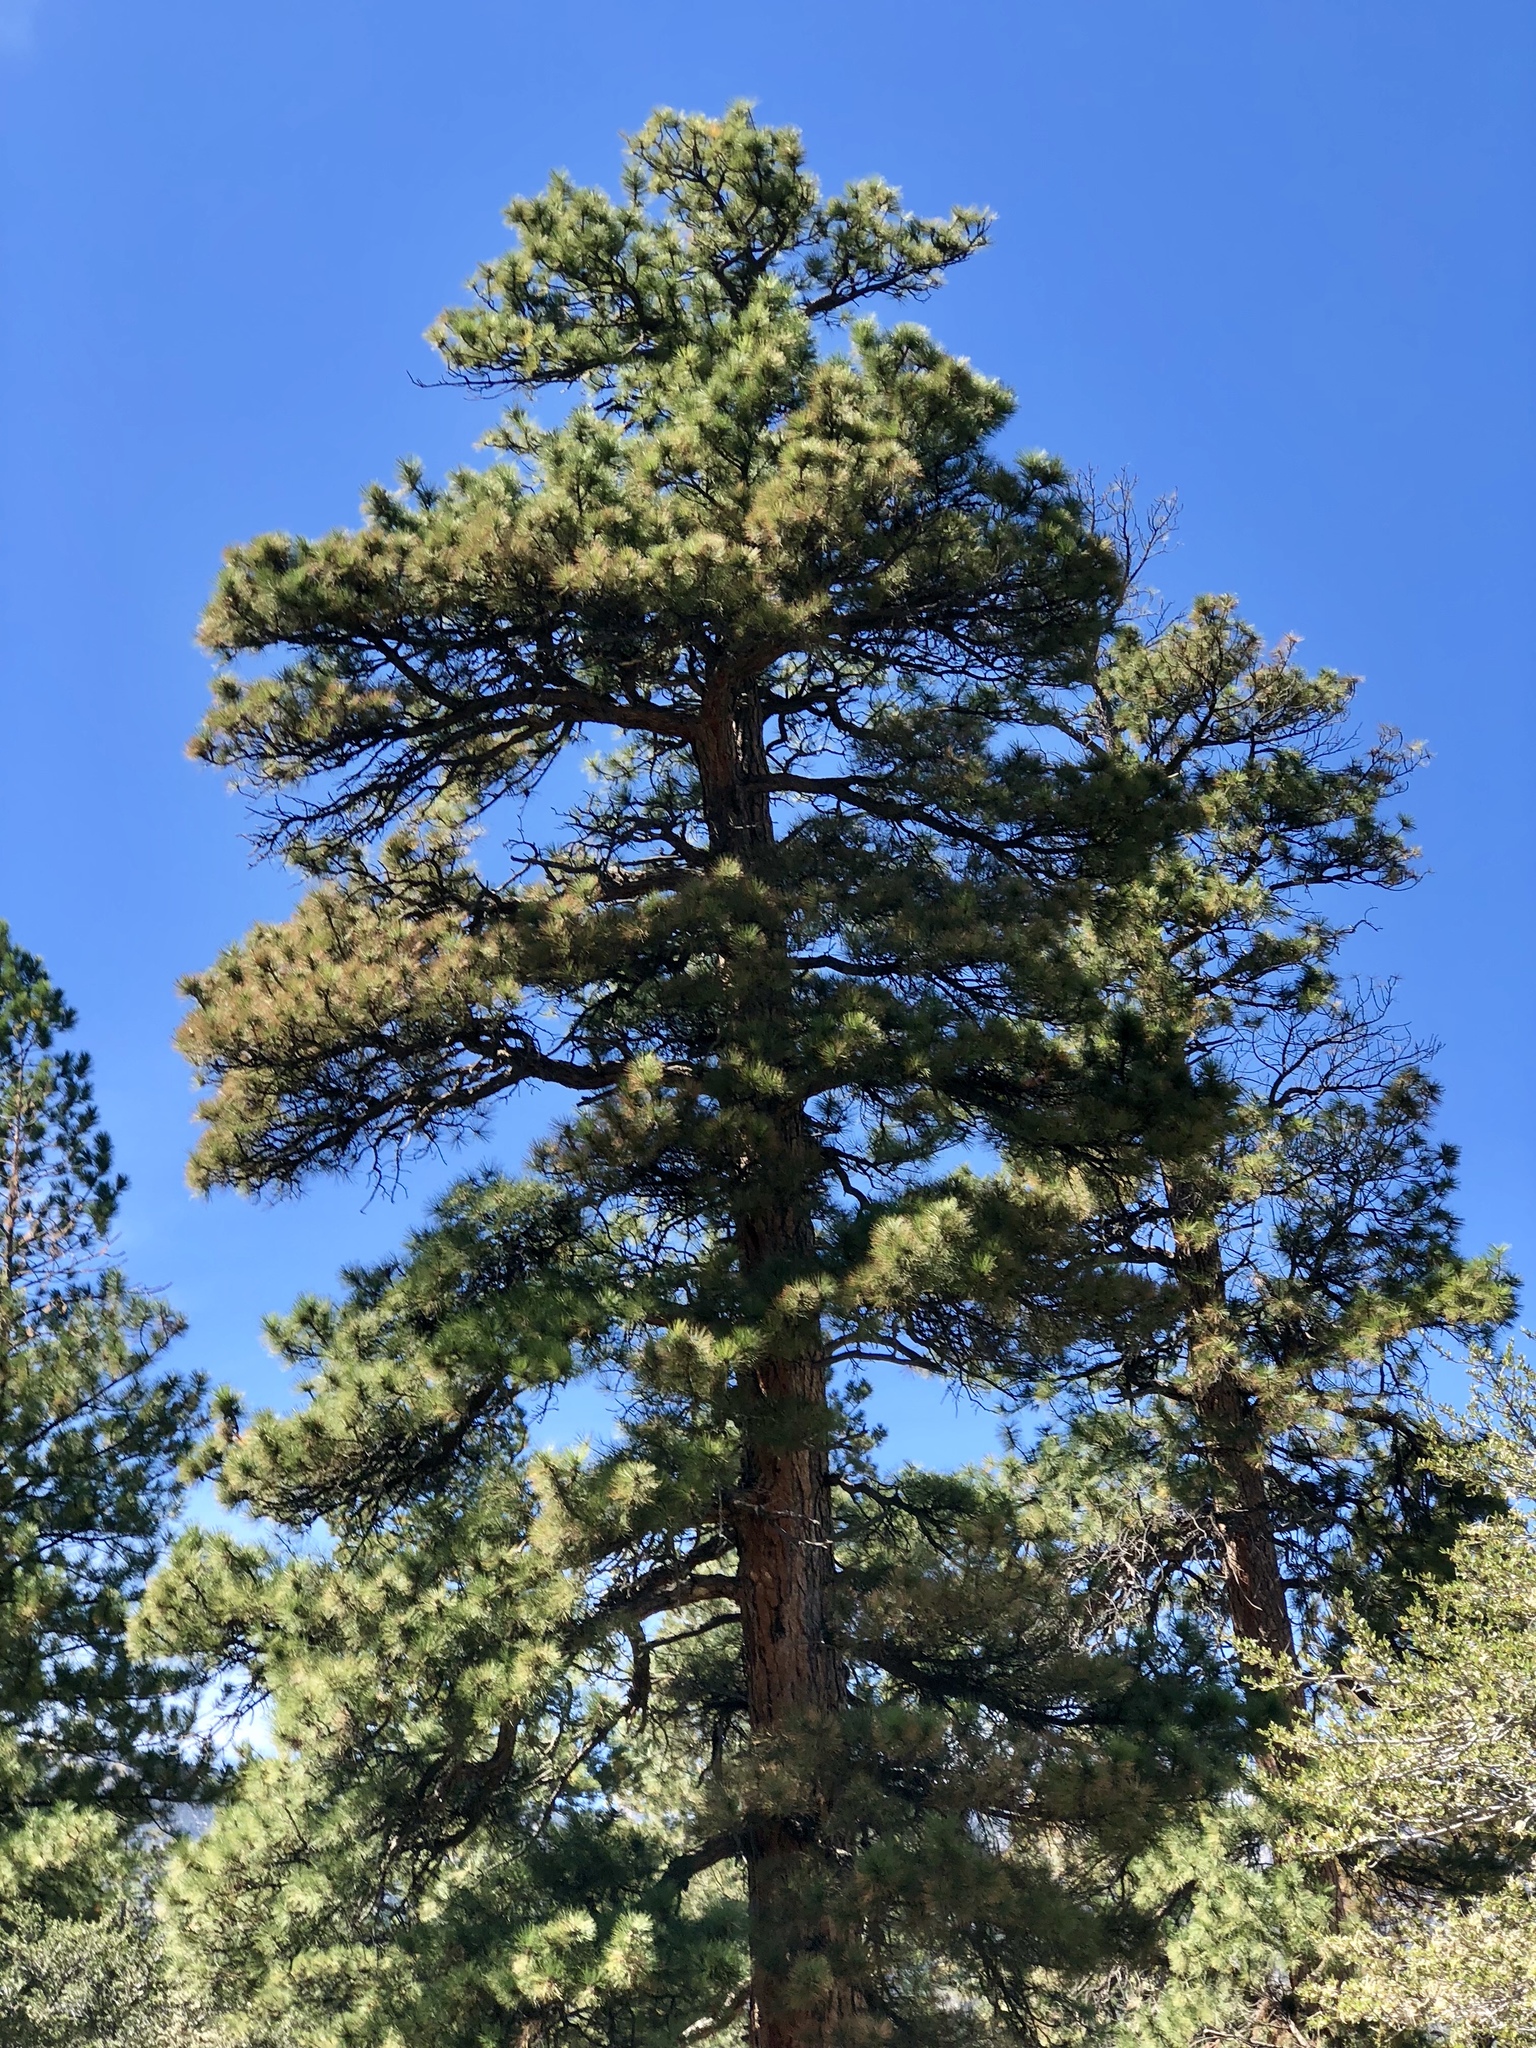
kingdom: Plantae
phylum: Tracheophyta
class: Pinopsida
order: Pinales
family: Pinaceae
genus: Pinus
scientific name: Pinus ponderosa
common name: Western yellow-pine
